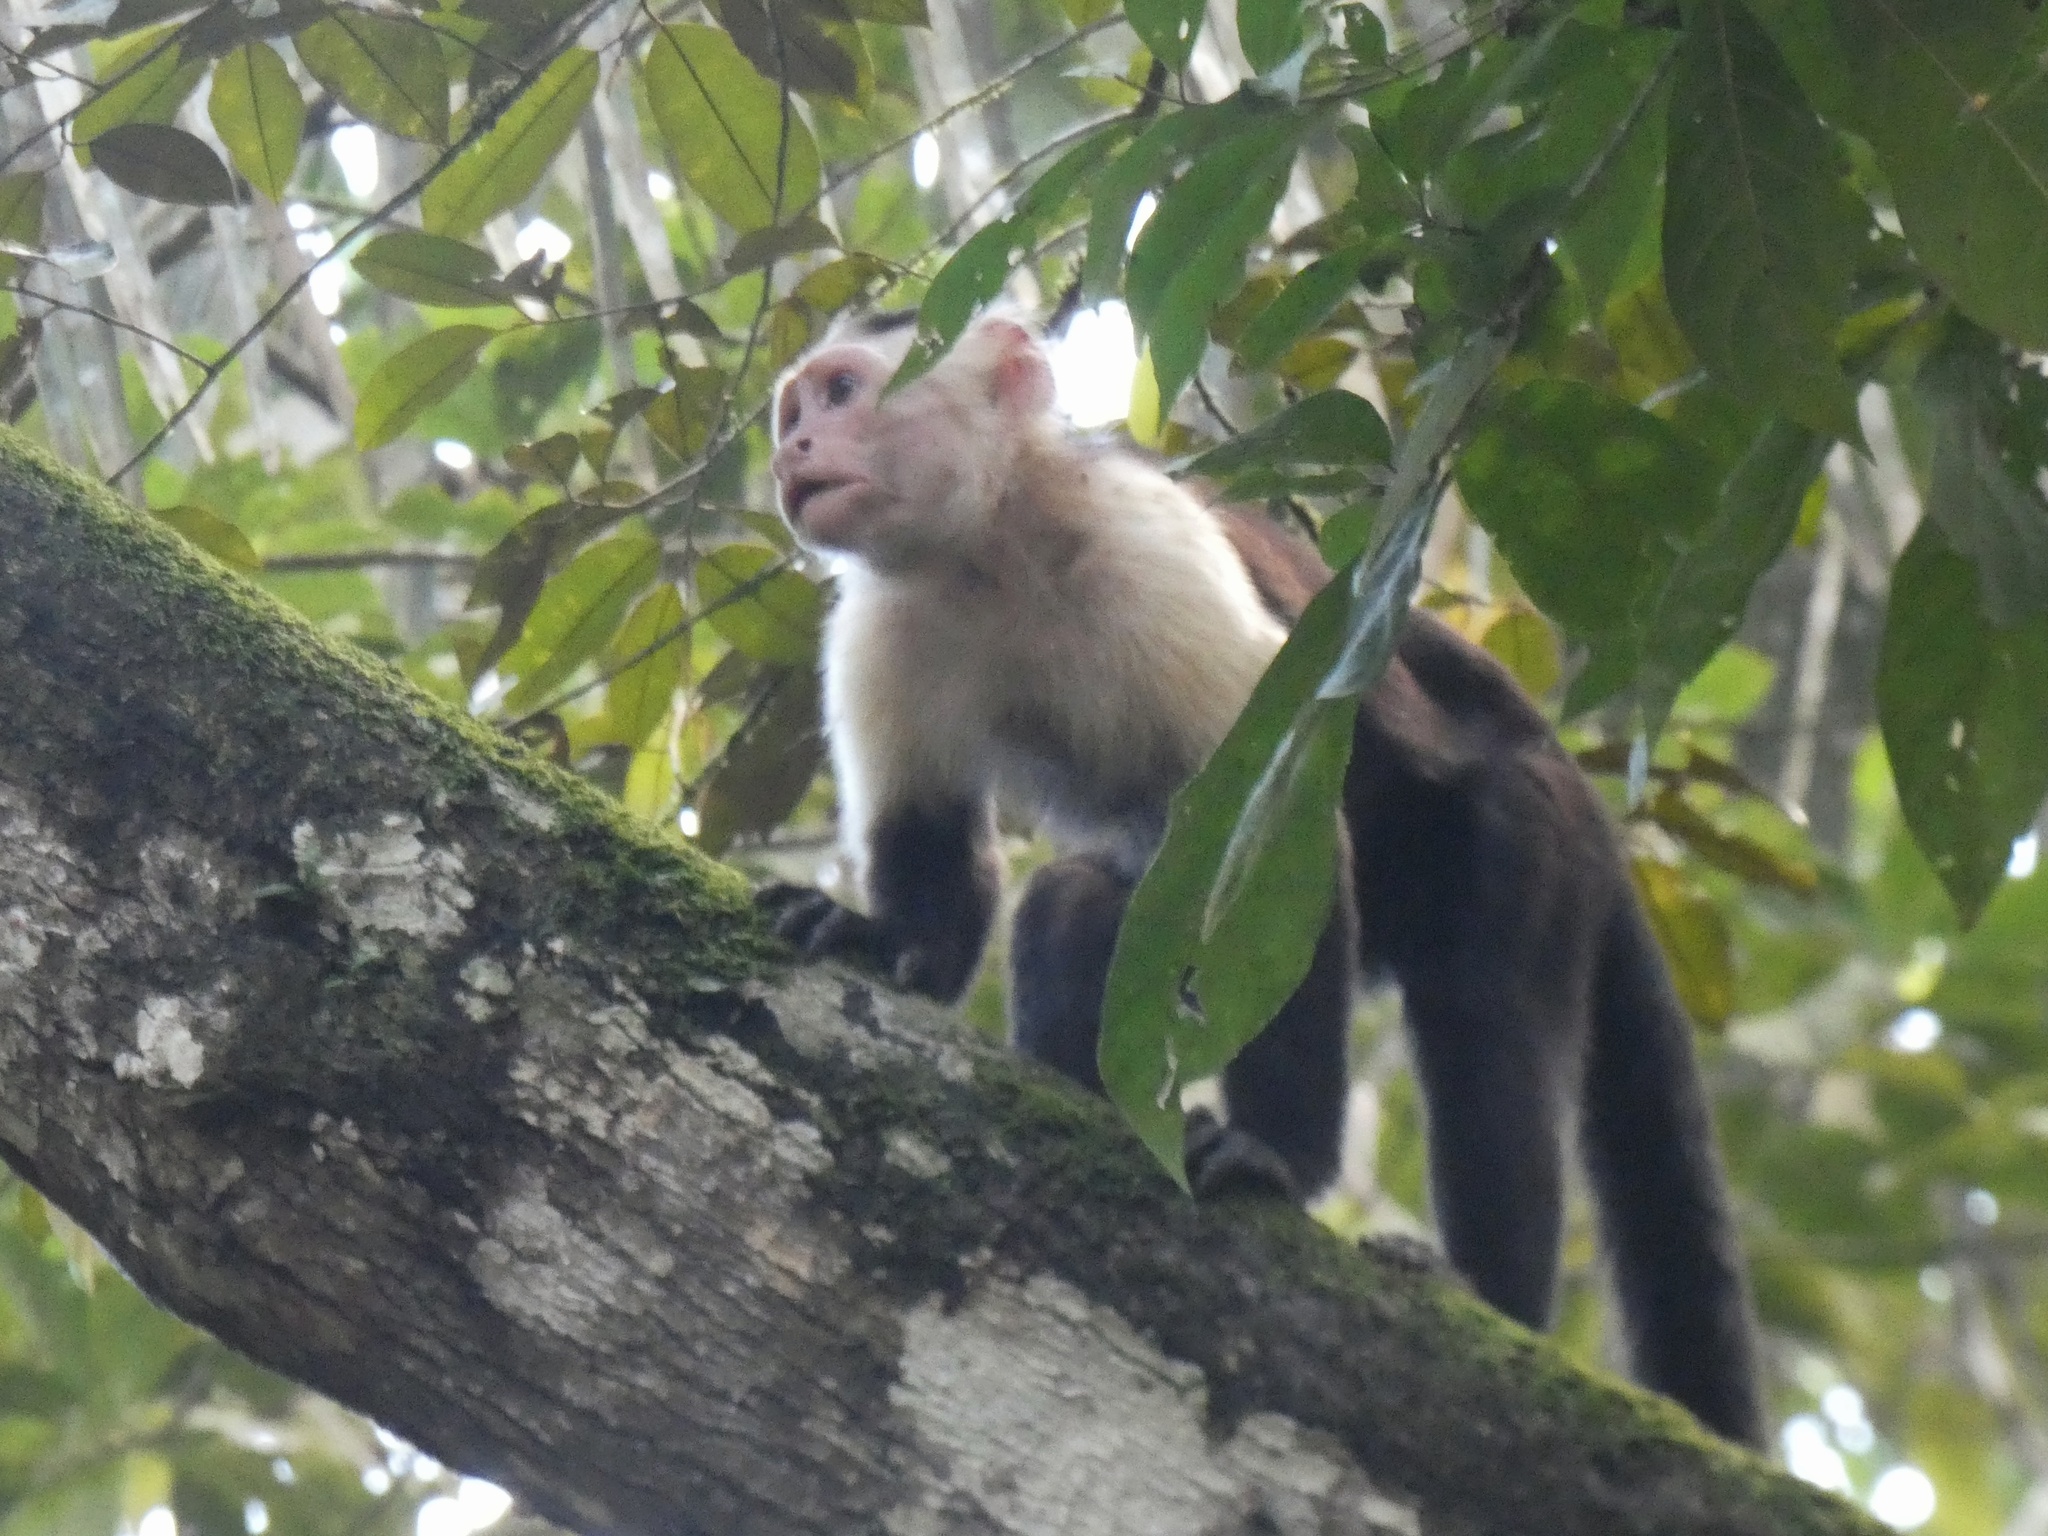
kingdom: Animalia
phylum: Chordata
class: Mammalia
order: Primates
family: Cebidae
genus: Cebus
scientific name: Cebus imitator
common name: Panamanian white-faced capuchin
